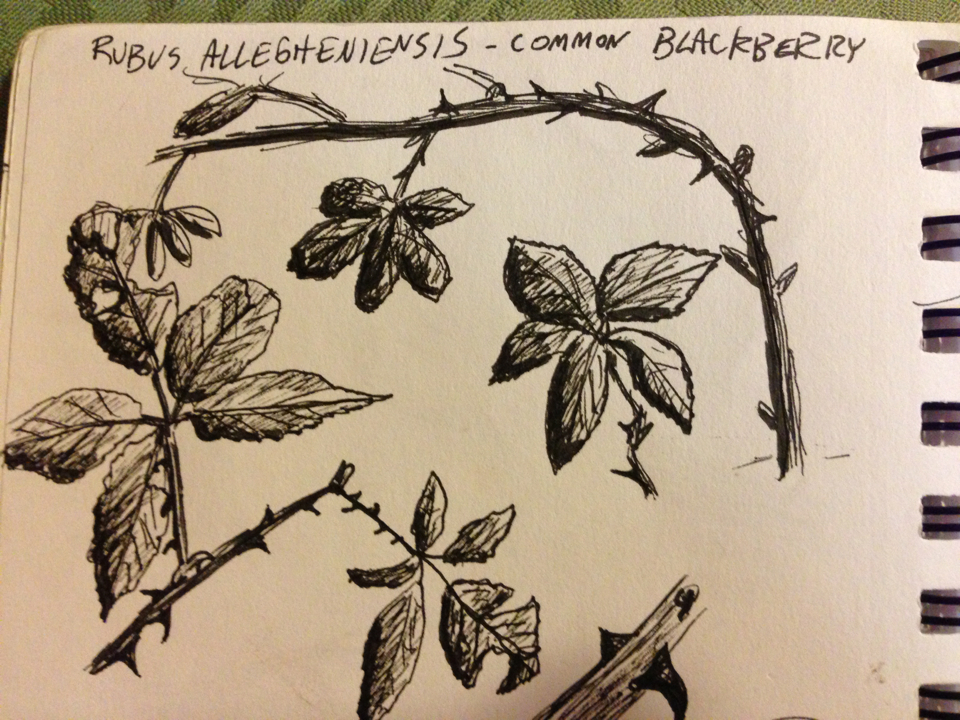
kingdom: Plantae
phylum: Tracheophyta
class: Magnoliopsida
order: Rosales
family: Rosaceae
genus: Rubus
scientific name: Rubus allegheniensis
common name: Allegheny blackberry
